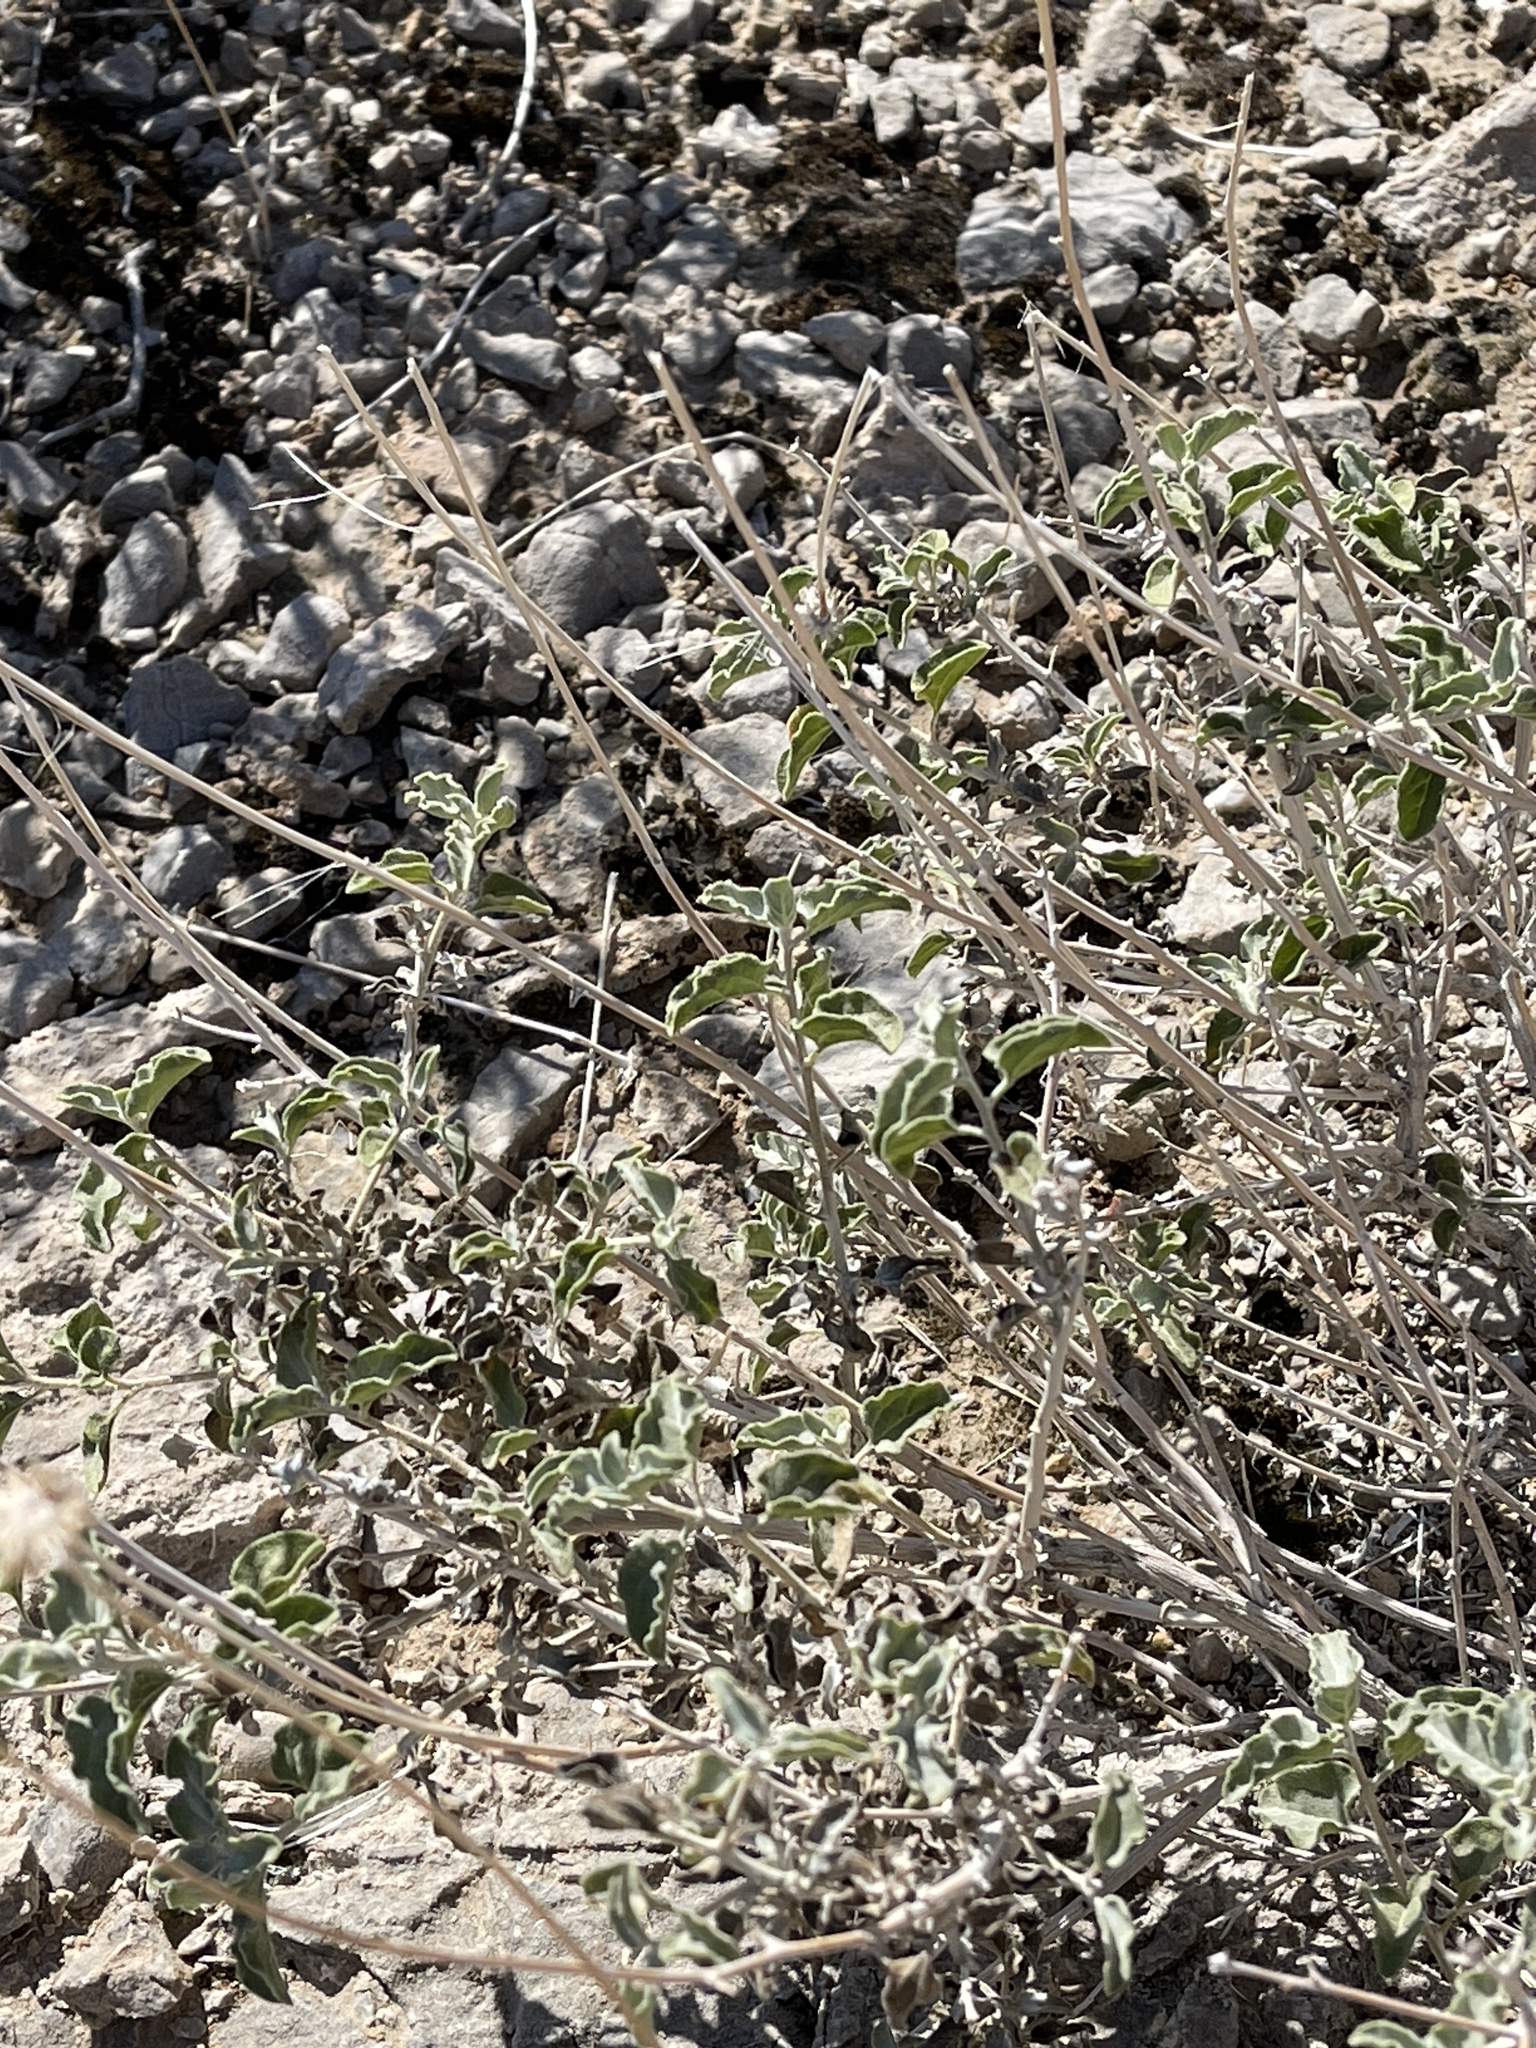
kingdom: Plantae
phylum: Tracheophyta
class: Magnoliopsida
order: Asterales
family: Asteraceae
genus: Encelia
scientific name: Encelia farinosa
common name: Brittlebush
